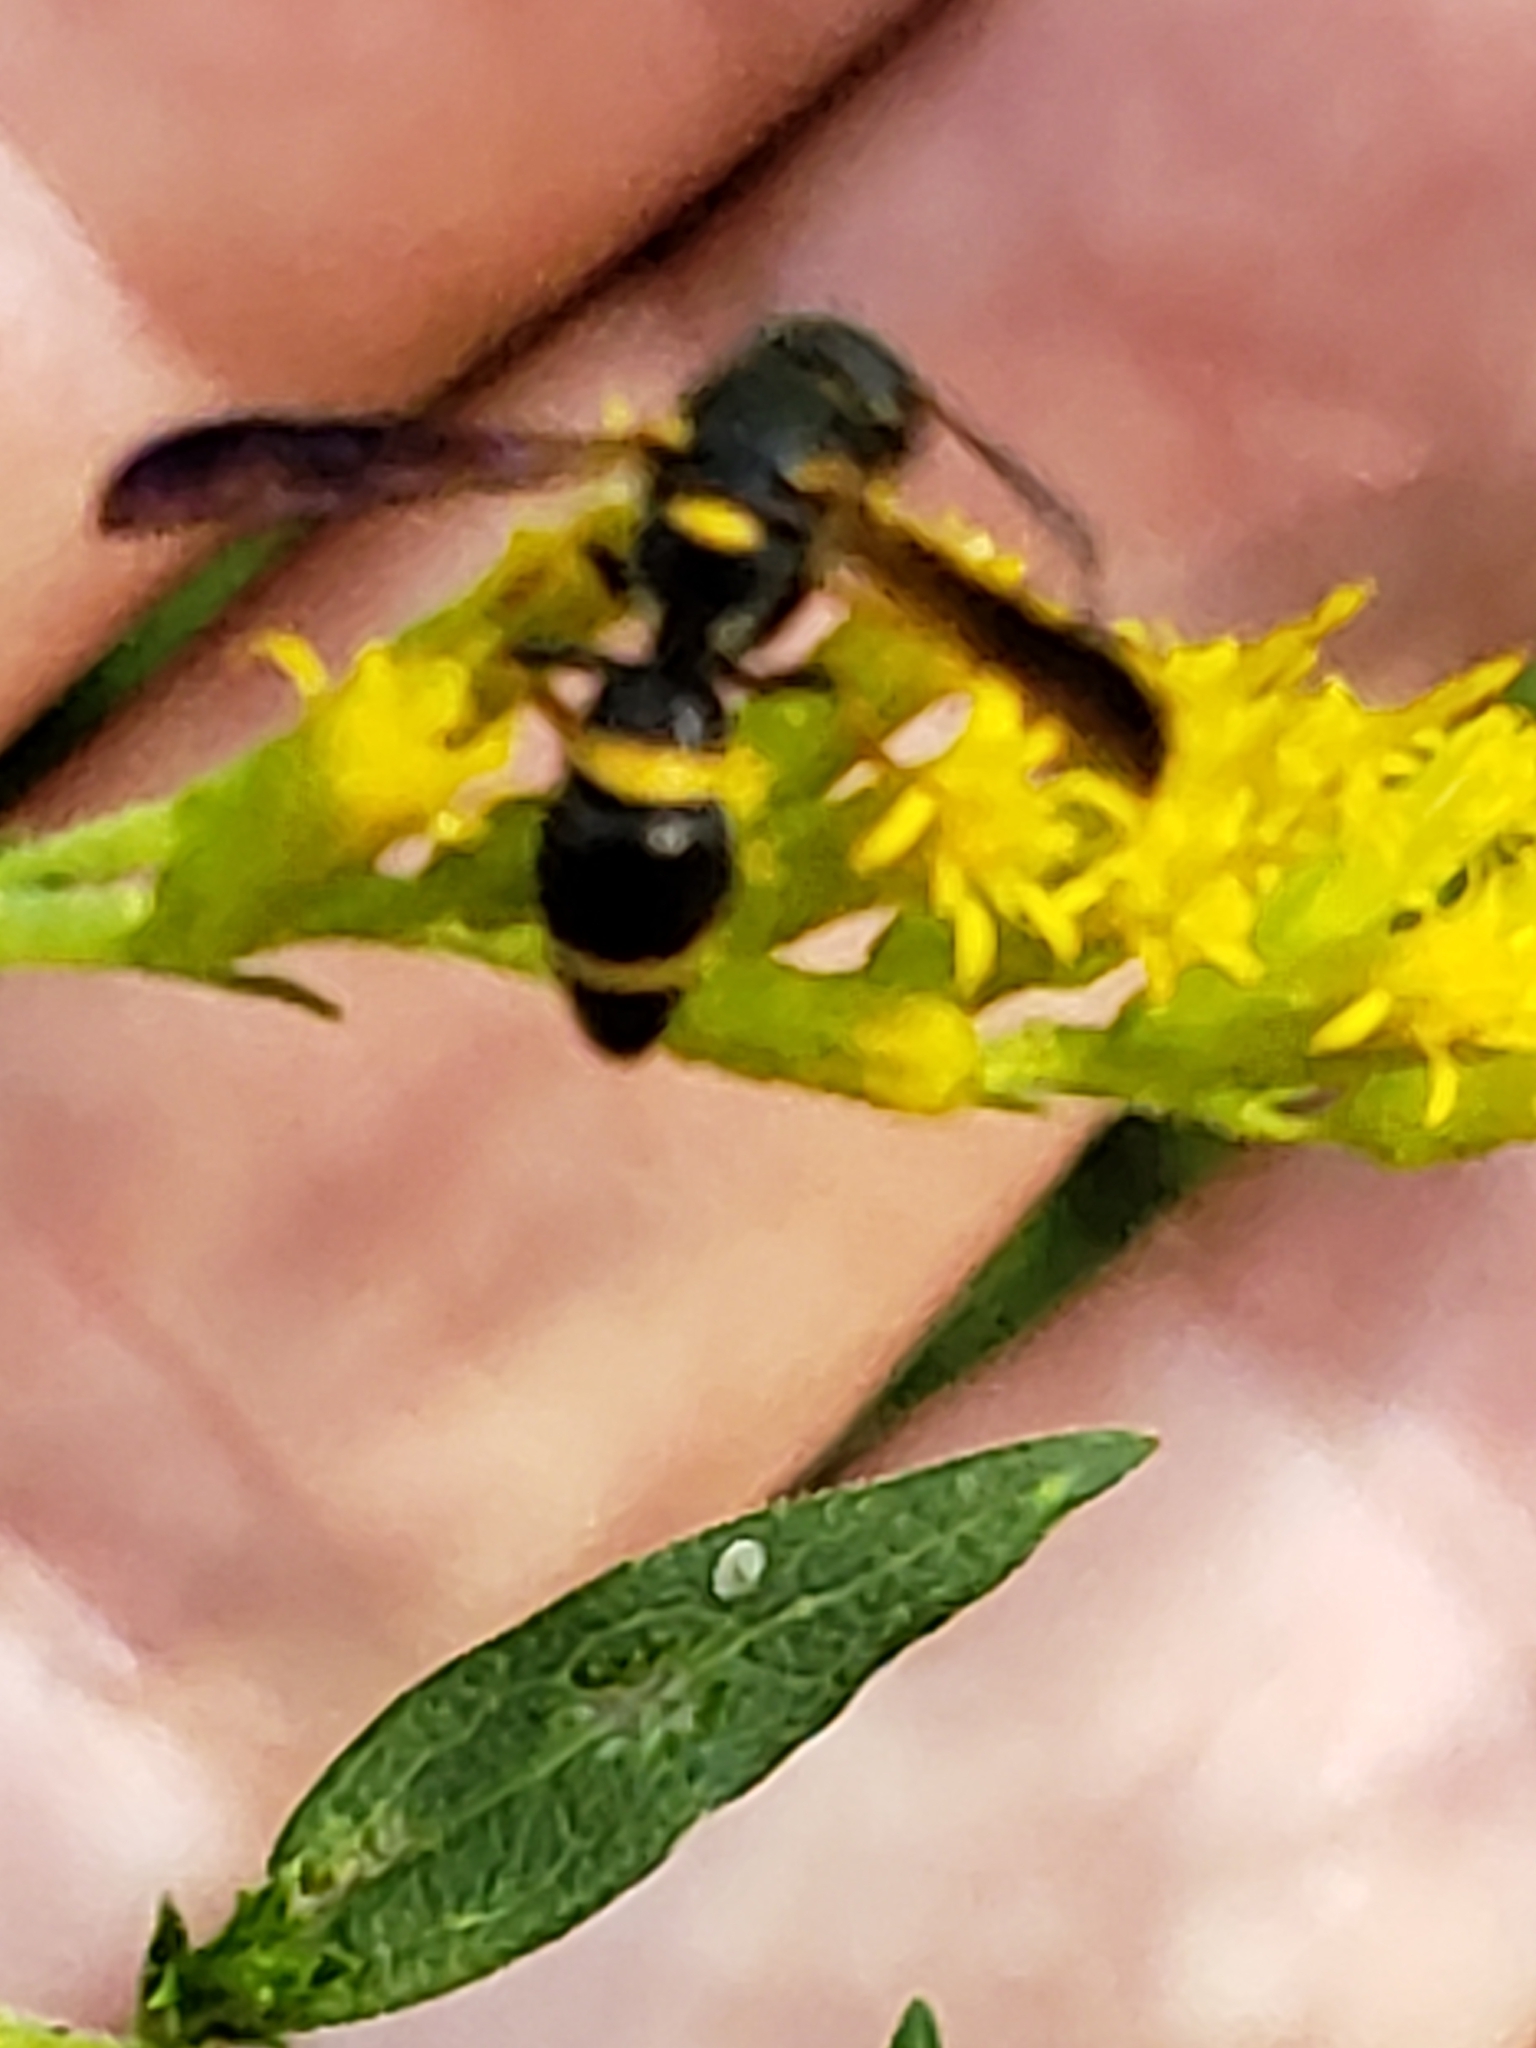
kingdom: Animalia
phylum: Arthropoda
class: Insecta
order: Hymenoptera
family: Eumenidae
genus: Parancistrocerus
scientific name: Parancistrocerus perennis
